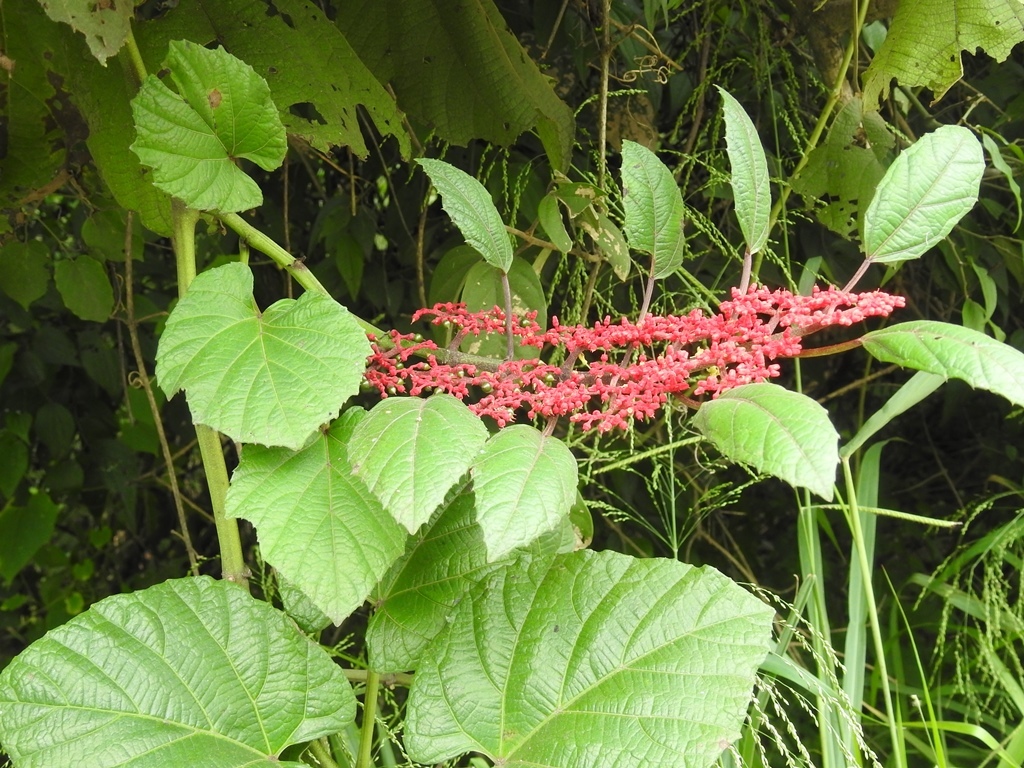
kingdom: Plantae
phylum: Tracheophyta
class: Magnoliopsida
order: Vitales
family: Vitaceae
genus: Cissus
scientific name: Cissus biformifolia
